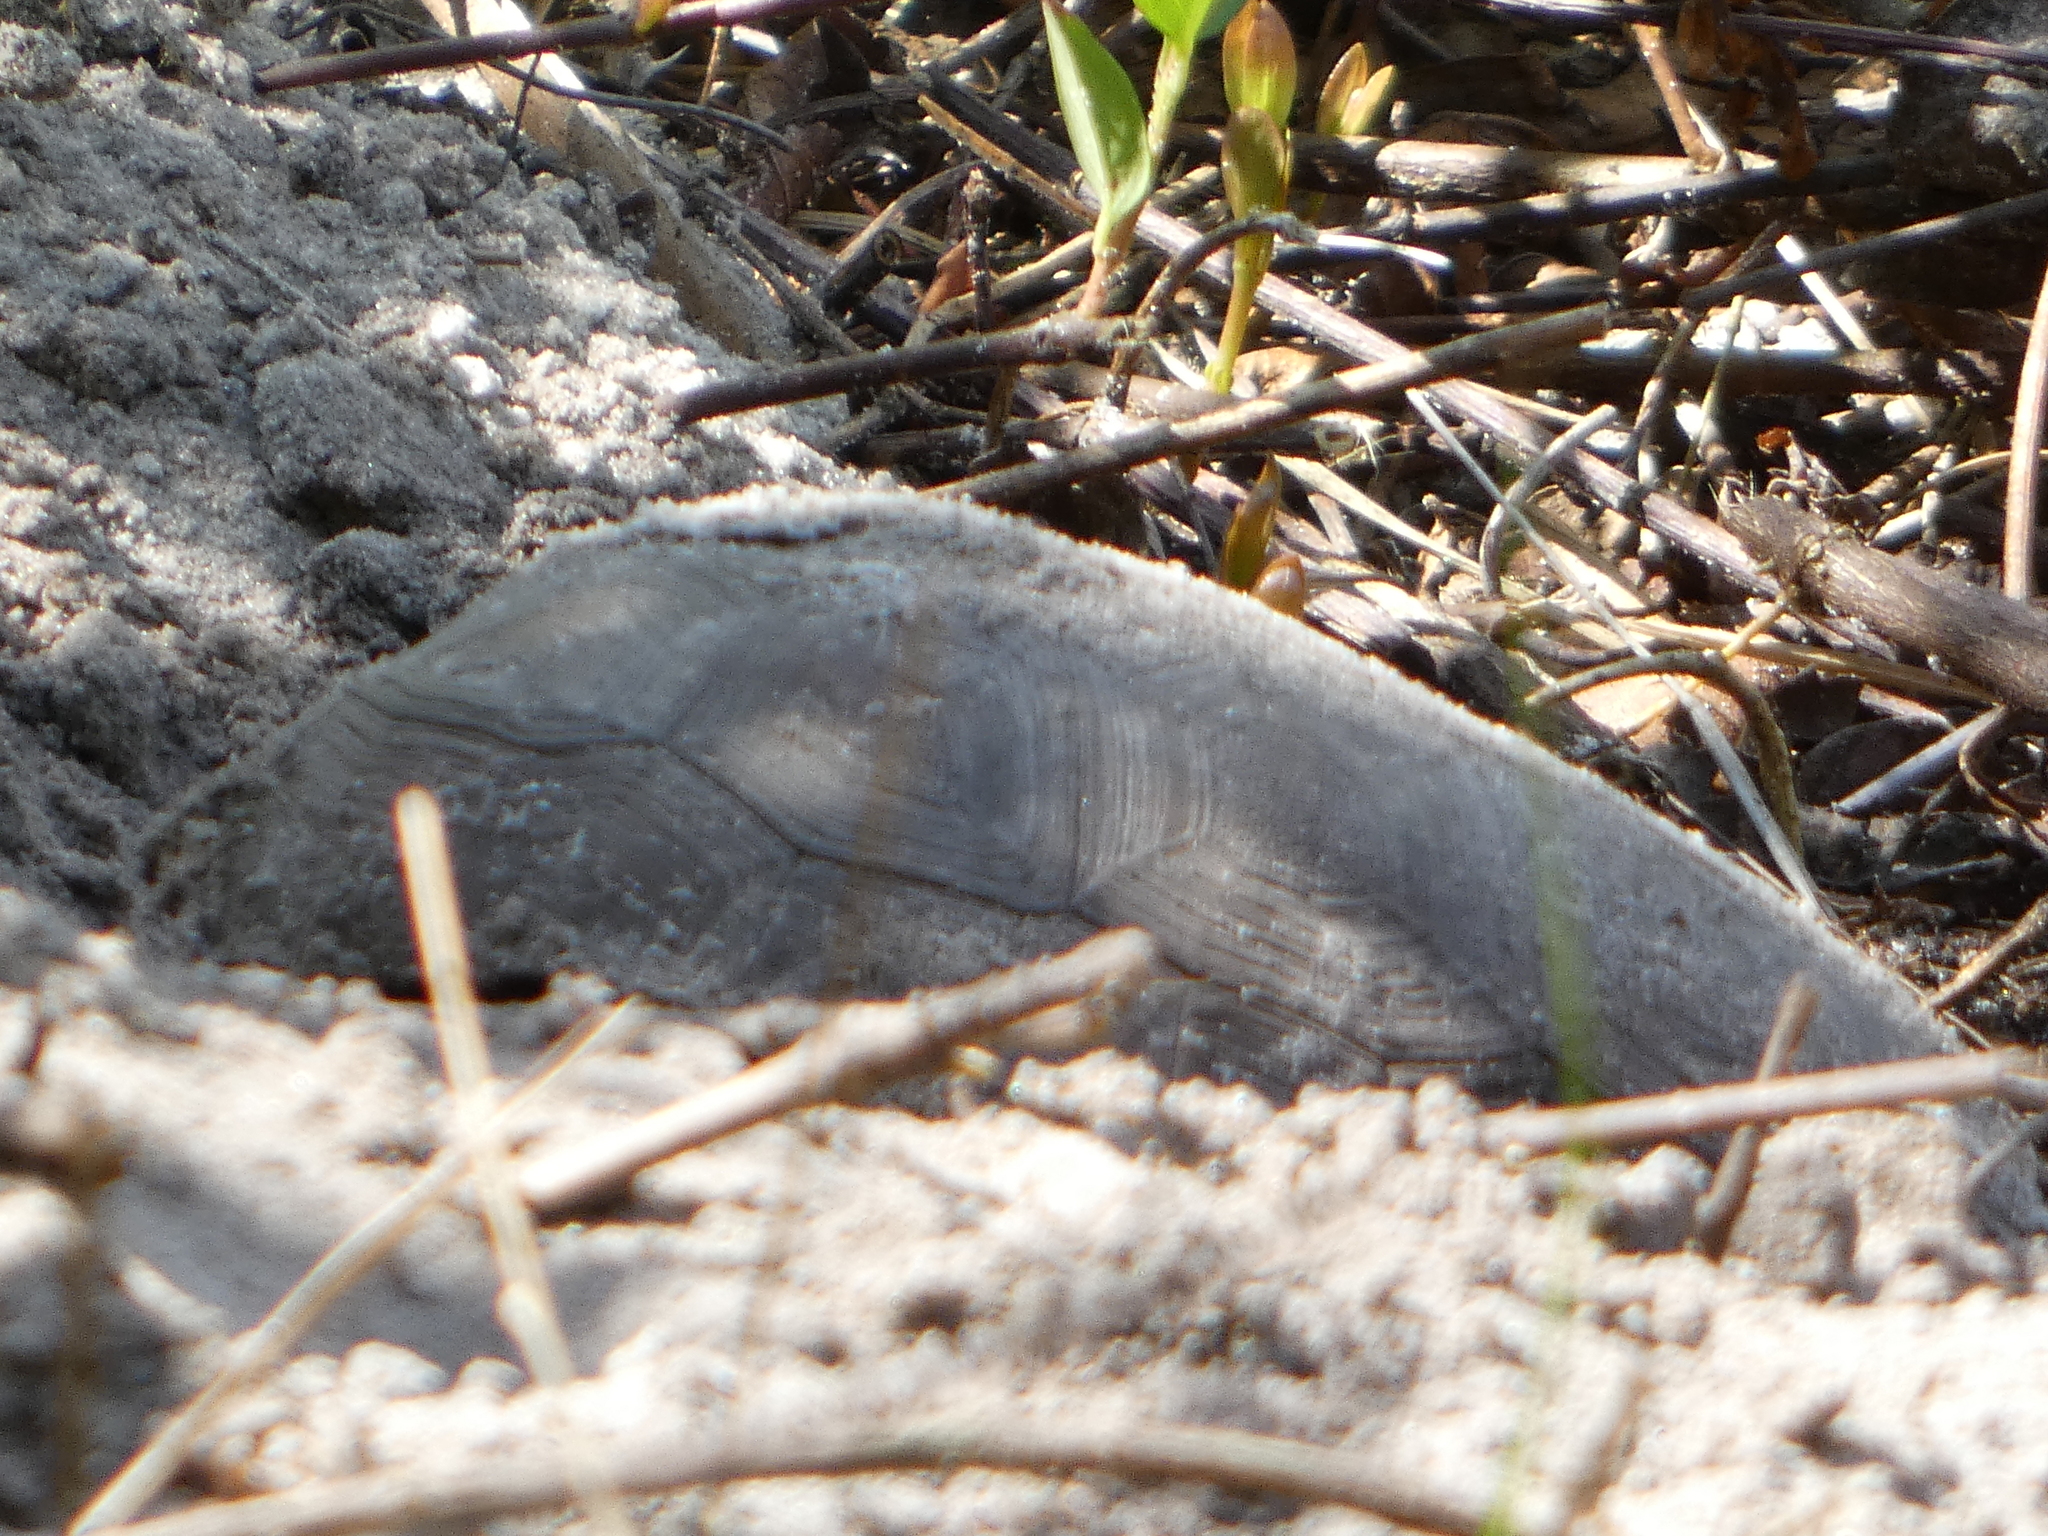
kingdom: Animalia
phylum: Chordata
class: Testudines
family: Testudinidae
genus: Gopherus
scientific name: Gopherus polyphemus
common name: Florida gopher tortoise
